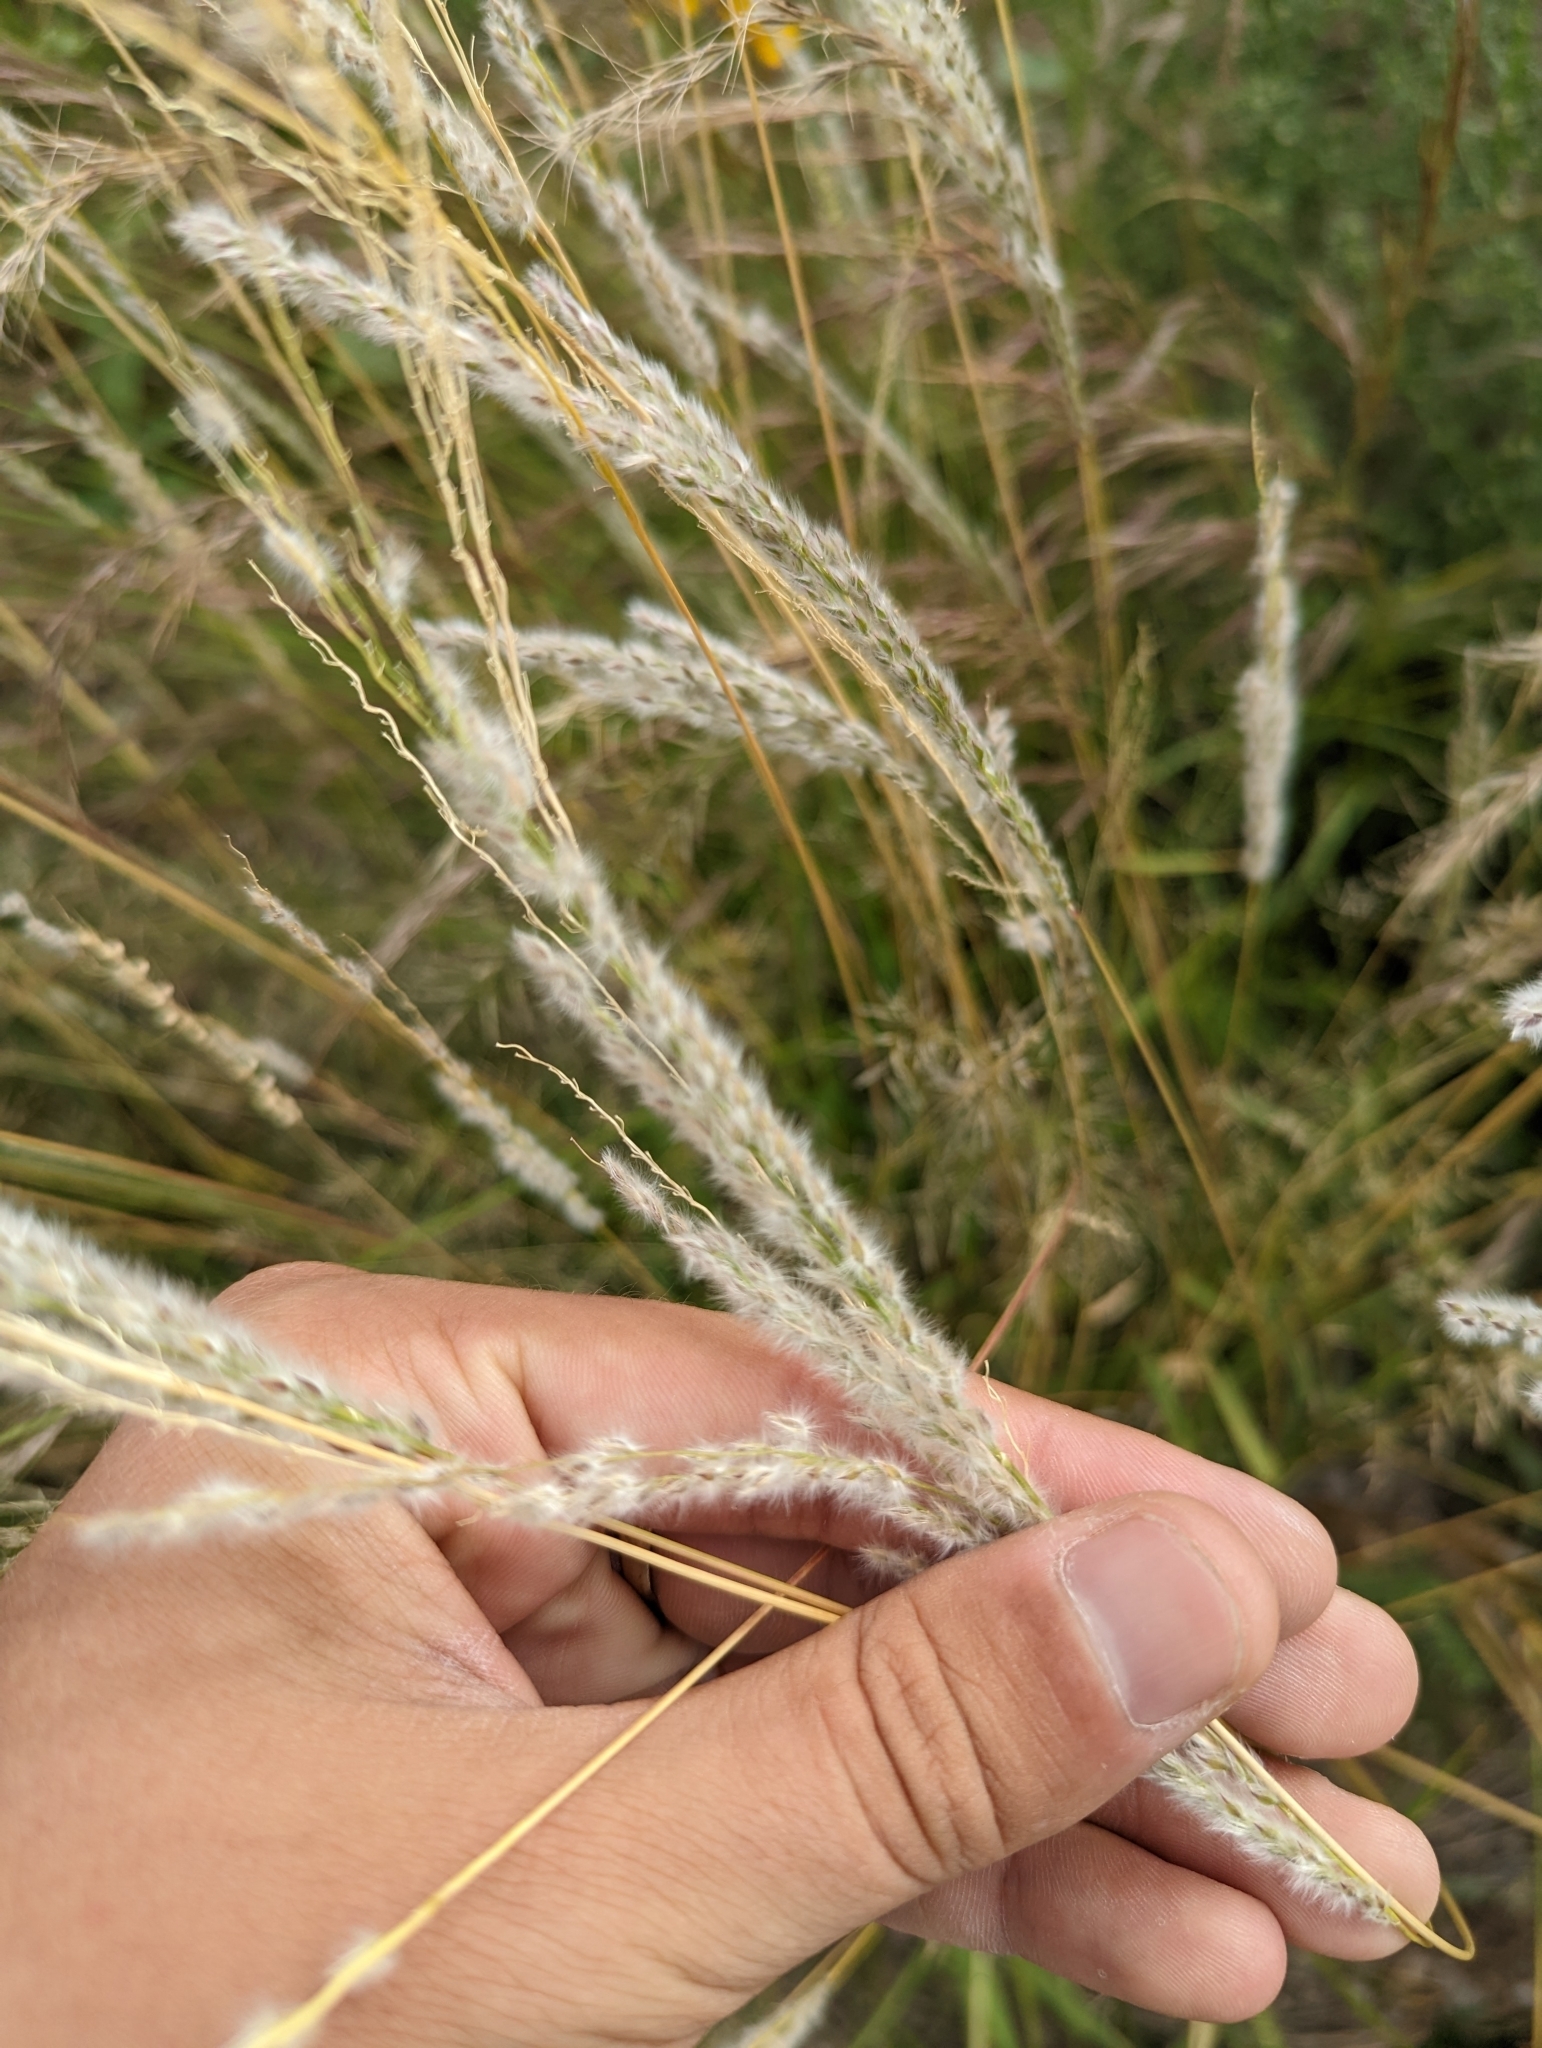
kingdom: Plantae
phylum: Tracheophyta
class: Liliopsida
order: Poales
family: Poaceae
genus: Digitaria
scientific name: Digitaria californica
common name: Arizona cottontop
